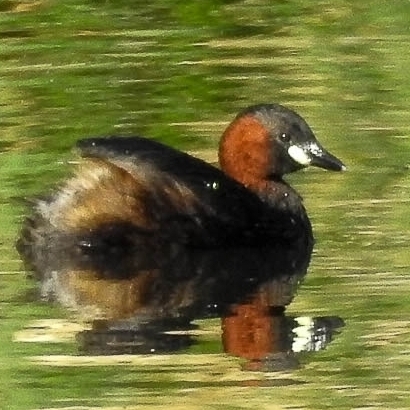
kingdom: Animalia
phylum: Chordata
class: Aves
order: Podicipediformes
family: Podicipedidae
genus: Tachybaptus
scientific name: Tachybaptus ruficollis
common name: Little grebe
